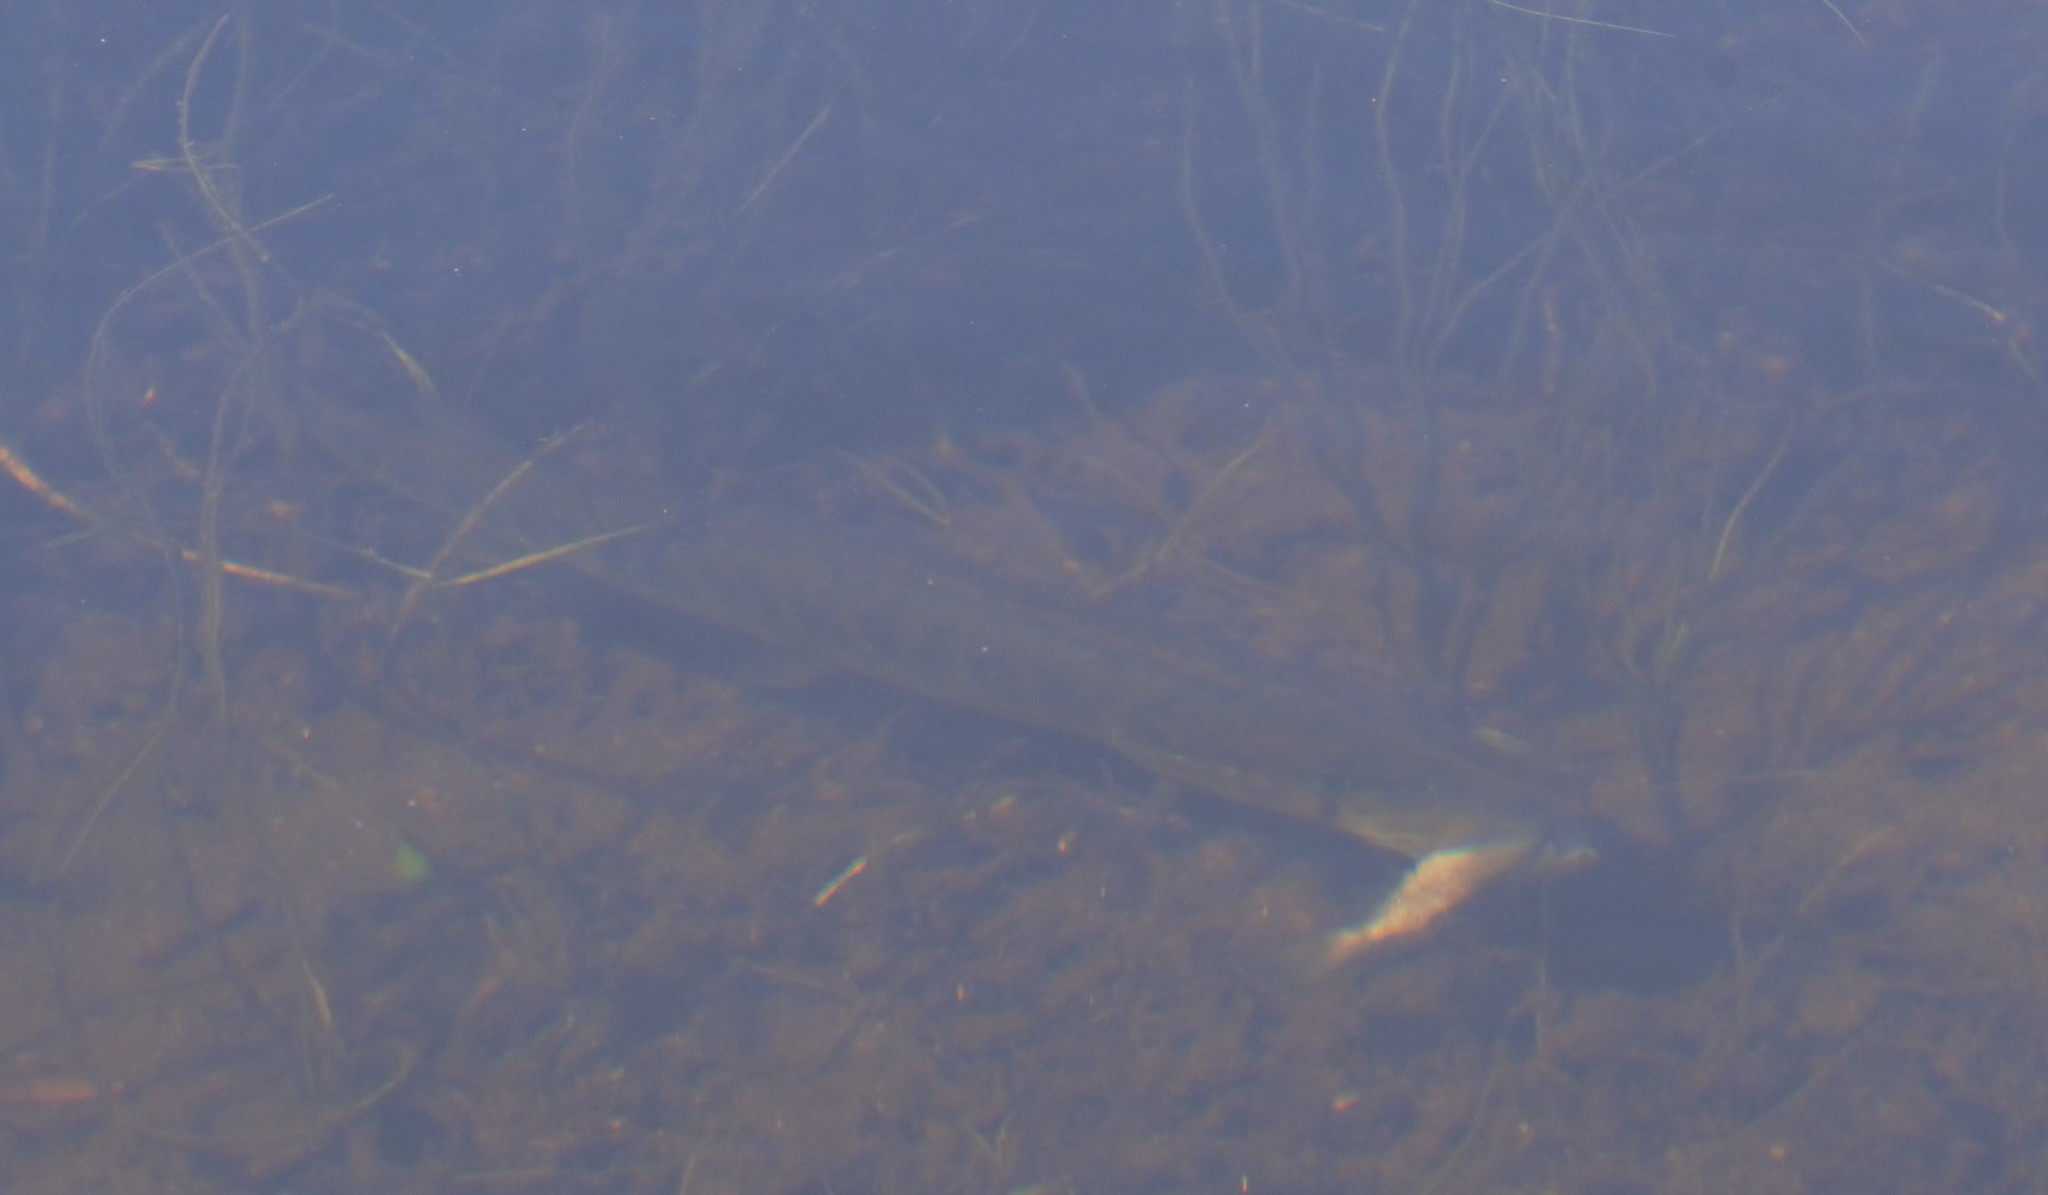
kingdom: Animalia
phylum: Chordata
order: Esociformes
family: Esocidae
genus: Esox
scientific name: Esox niger
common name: Chain pickerel
